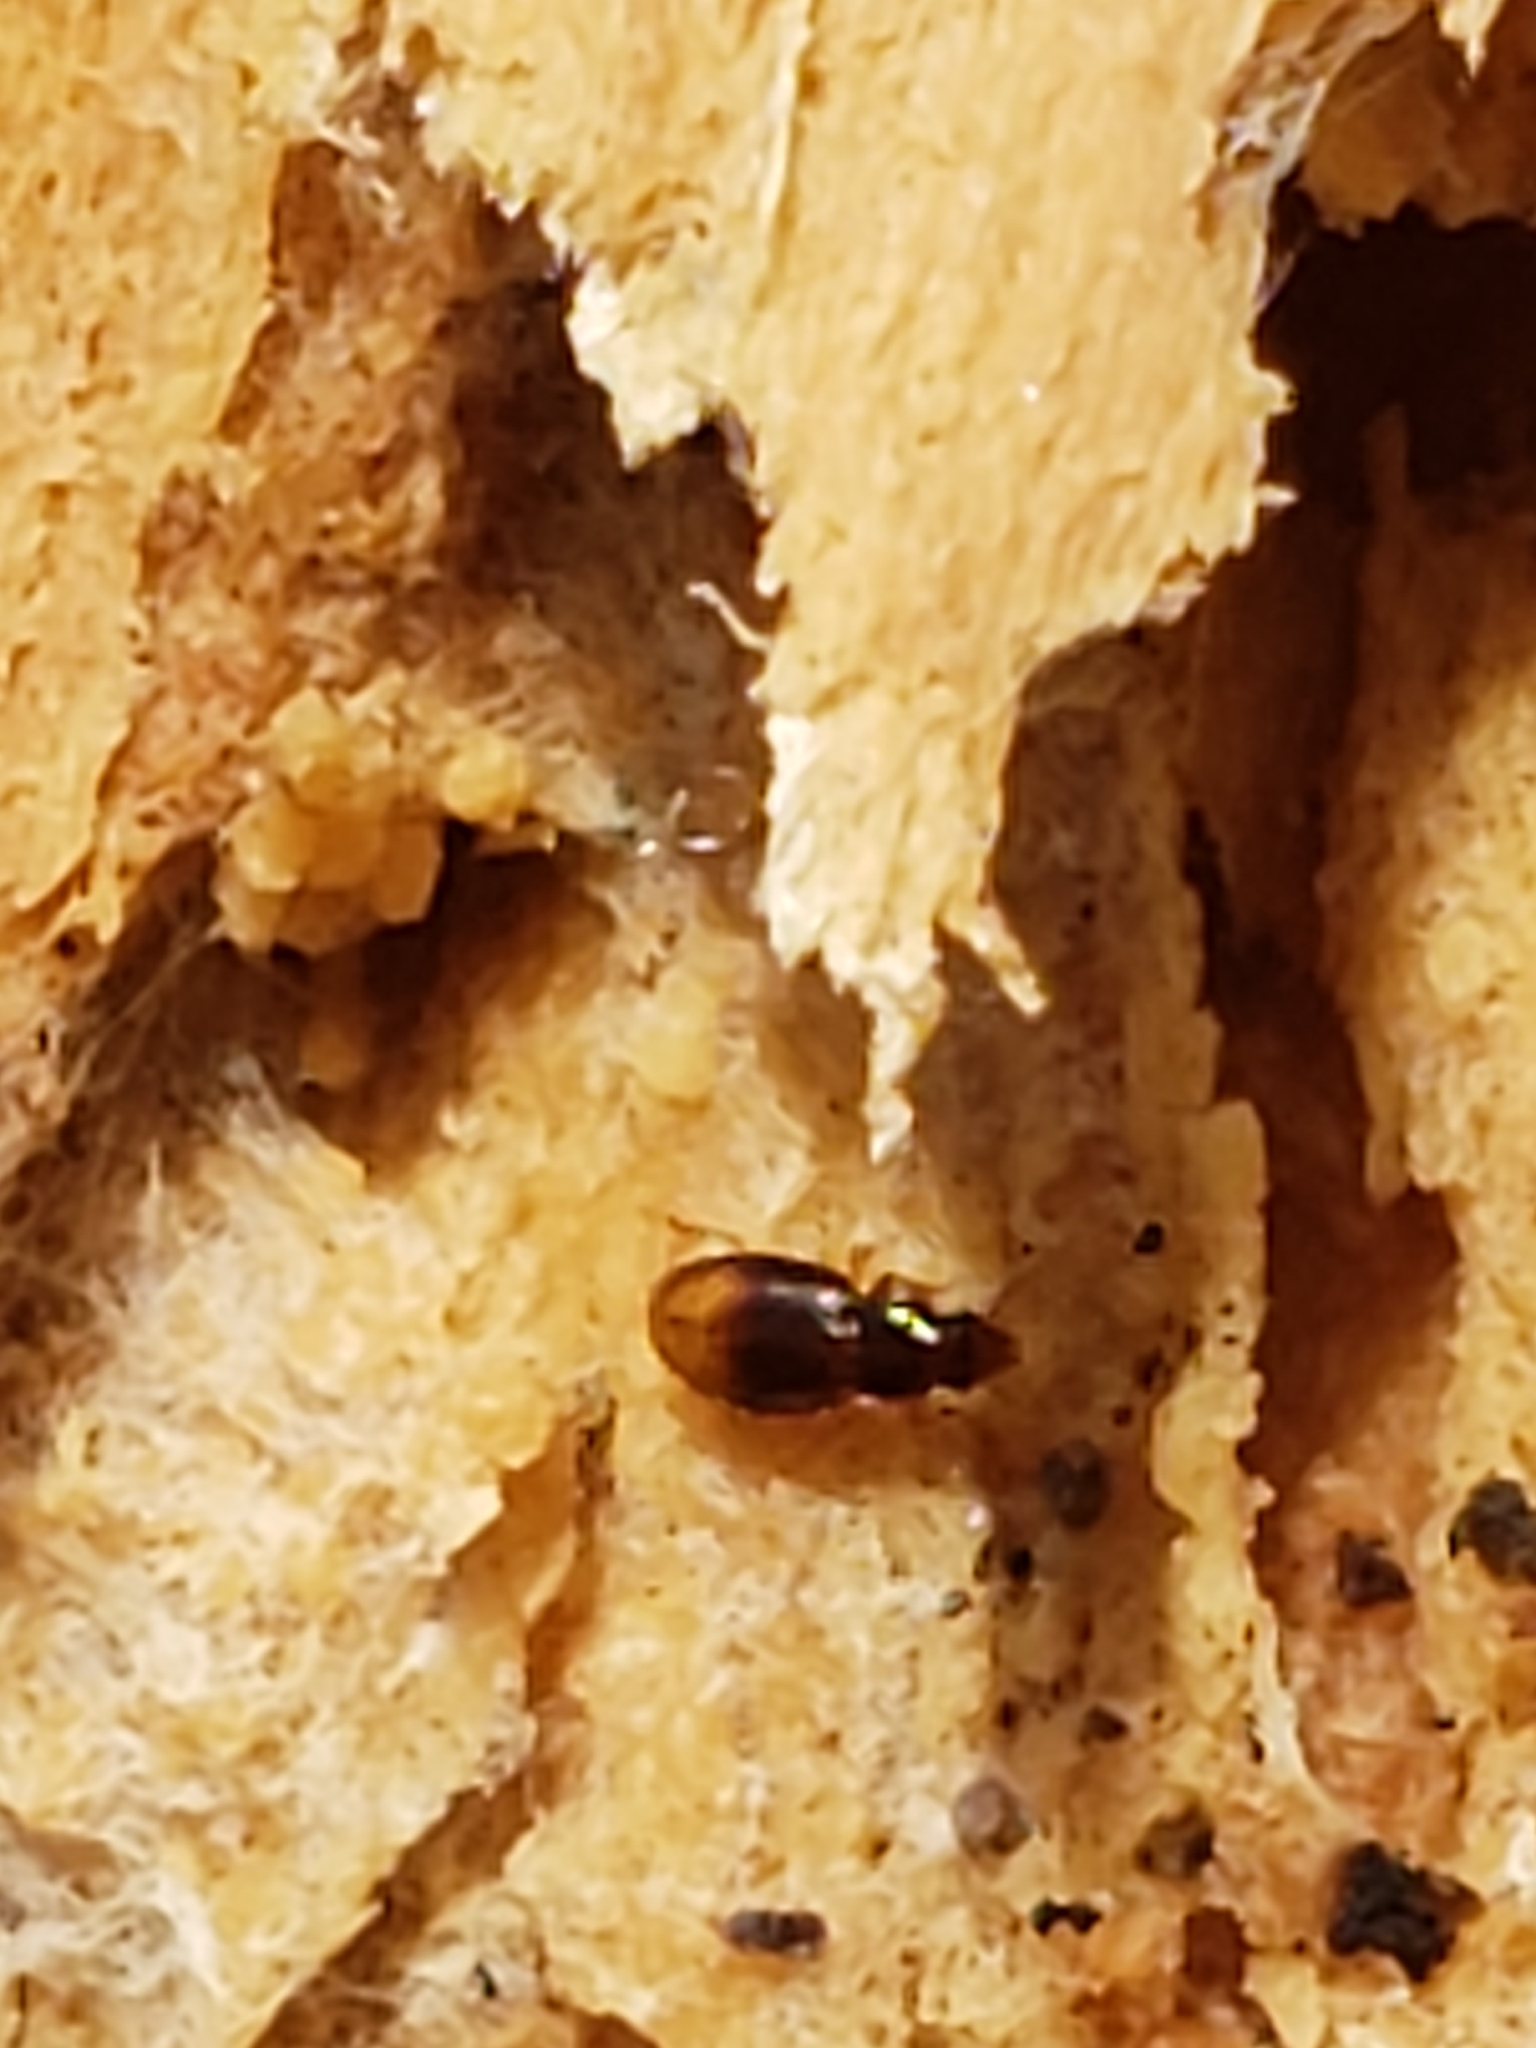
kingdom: Animalia
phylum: Arthropoda
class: Insecta
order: Coleoptera
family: Carabidae
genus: Mioptachys
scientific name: Mioptachys flavicauda
